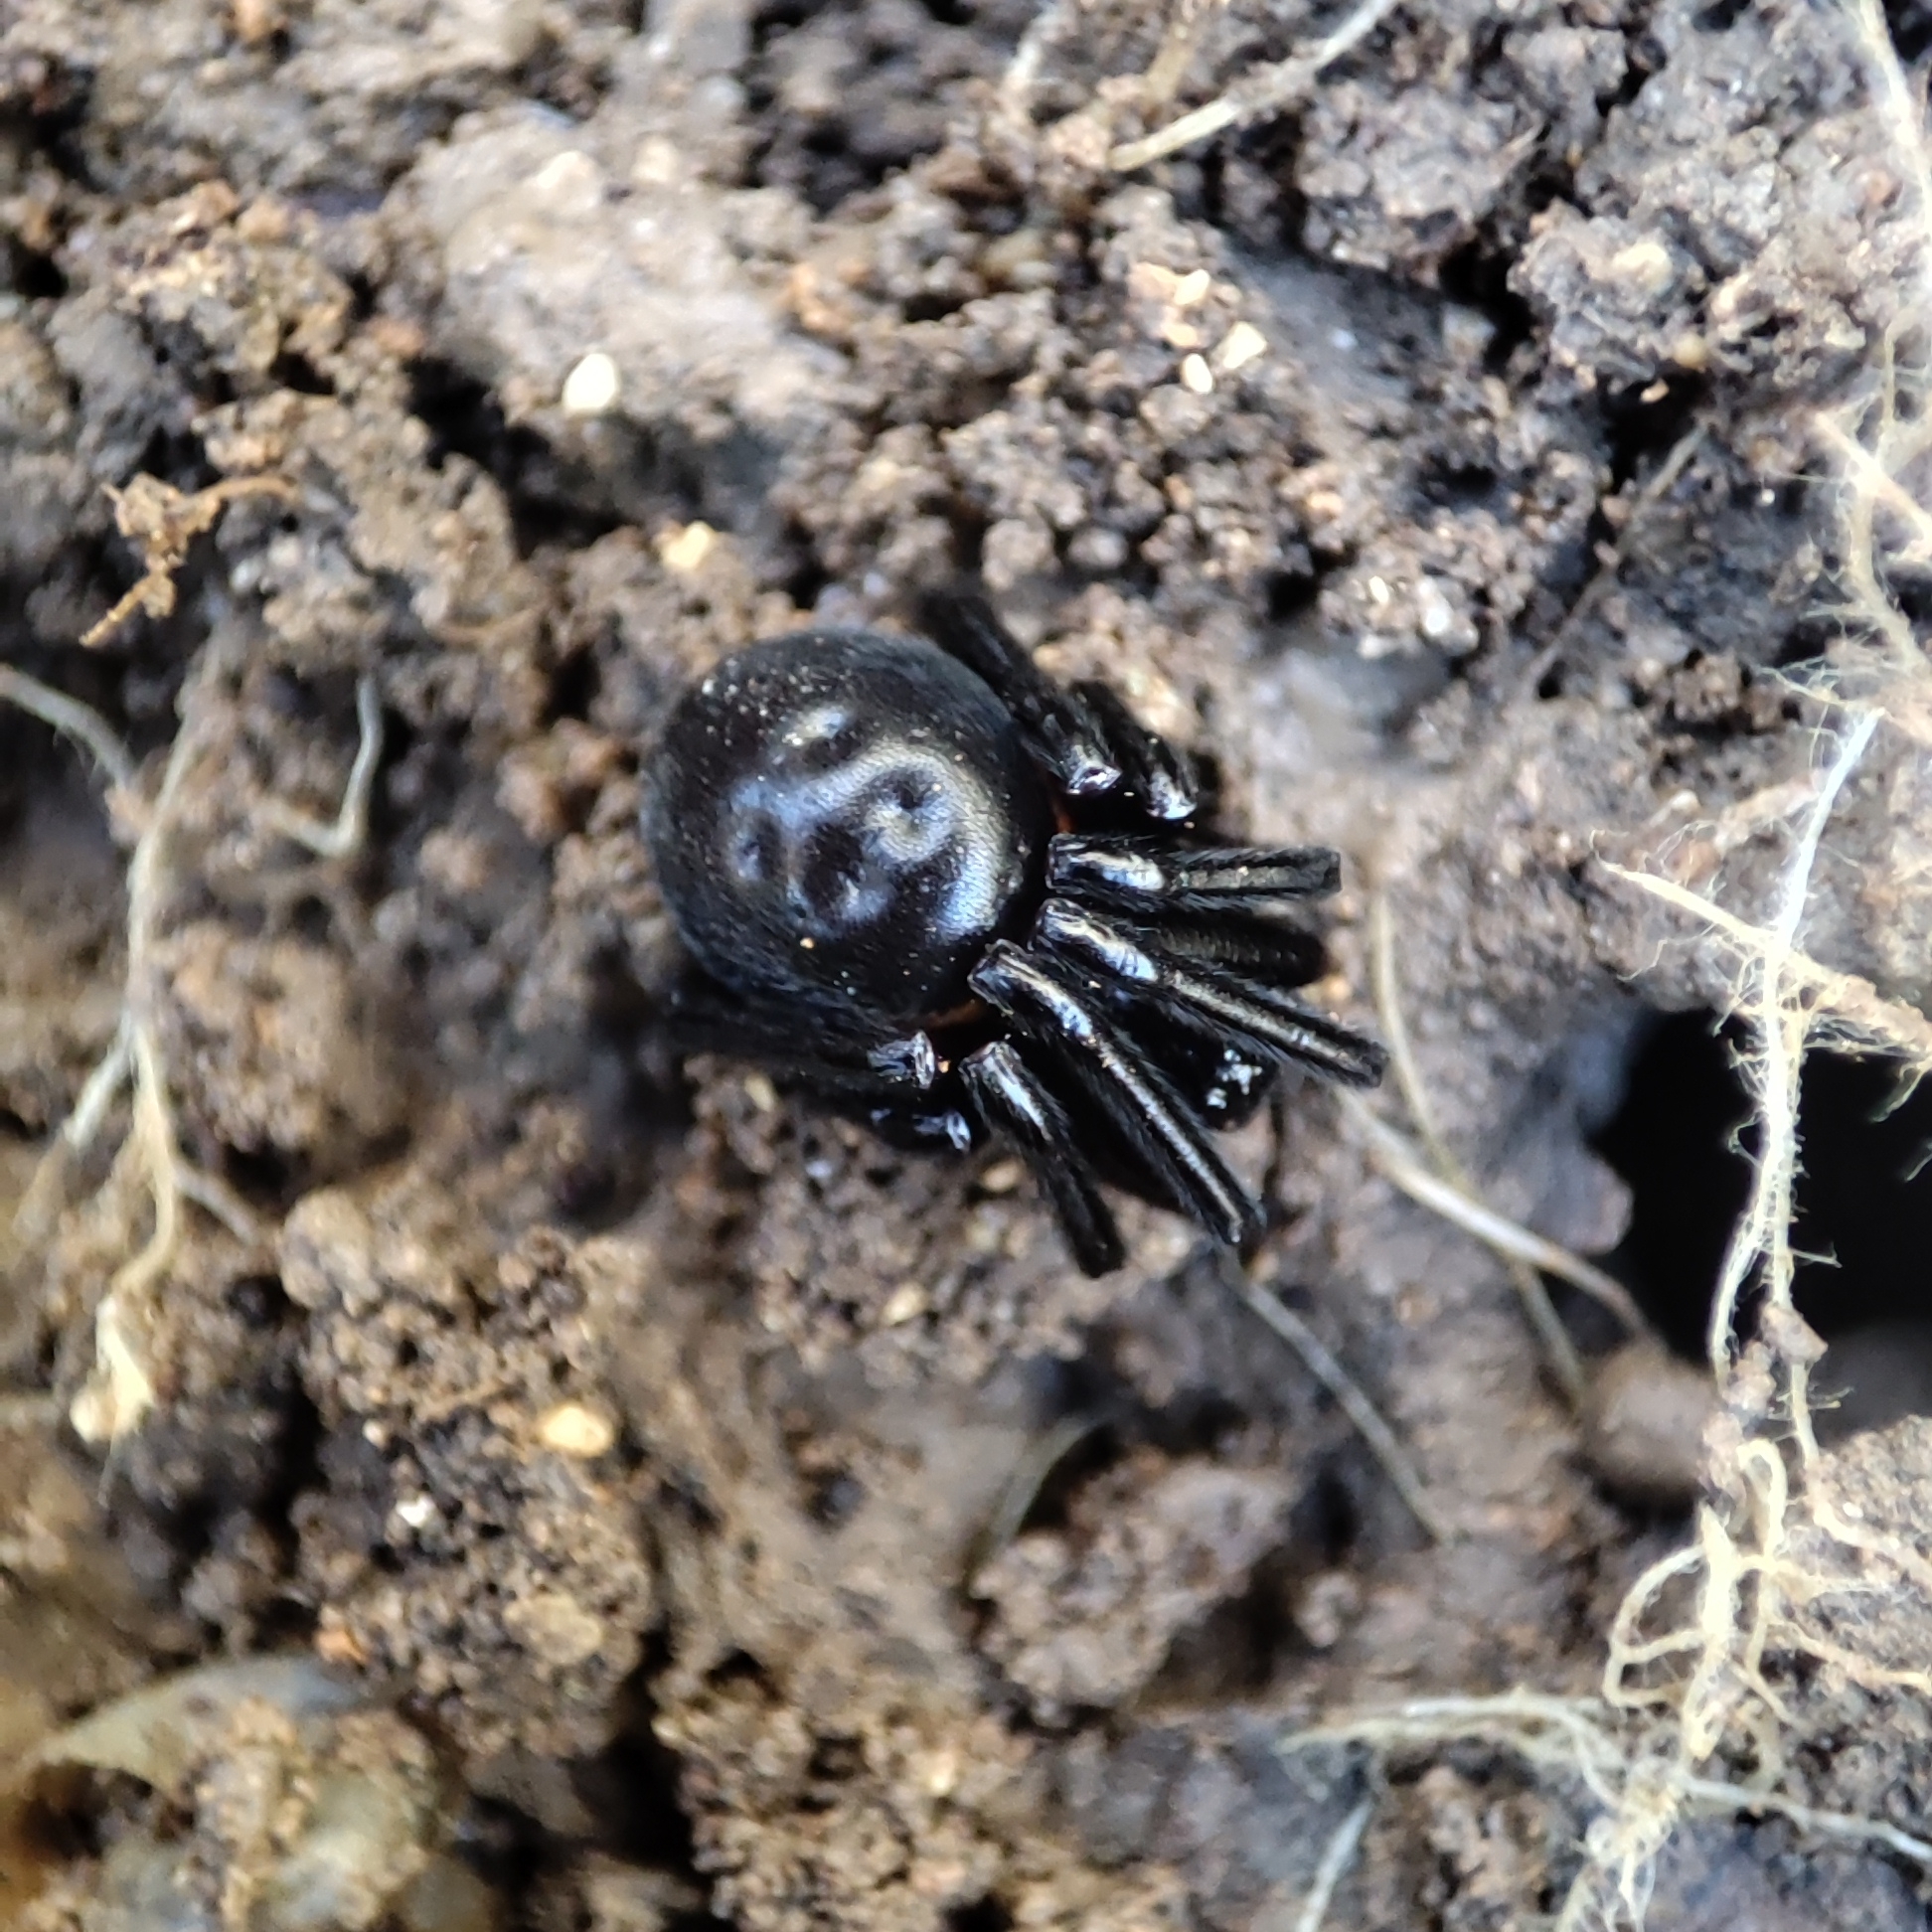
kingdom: Animalia
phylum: Arthropoda
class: Arachnida
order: Araneae
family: Theridiidae
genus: Steatoda
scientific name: Steatoda paykulliana
